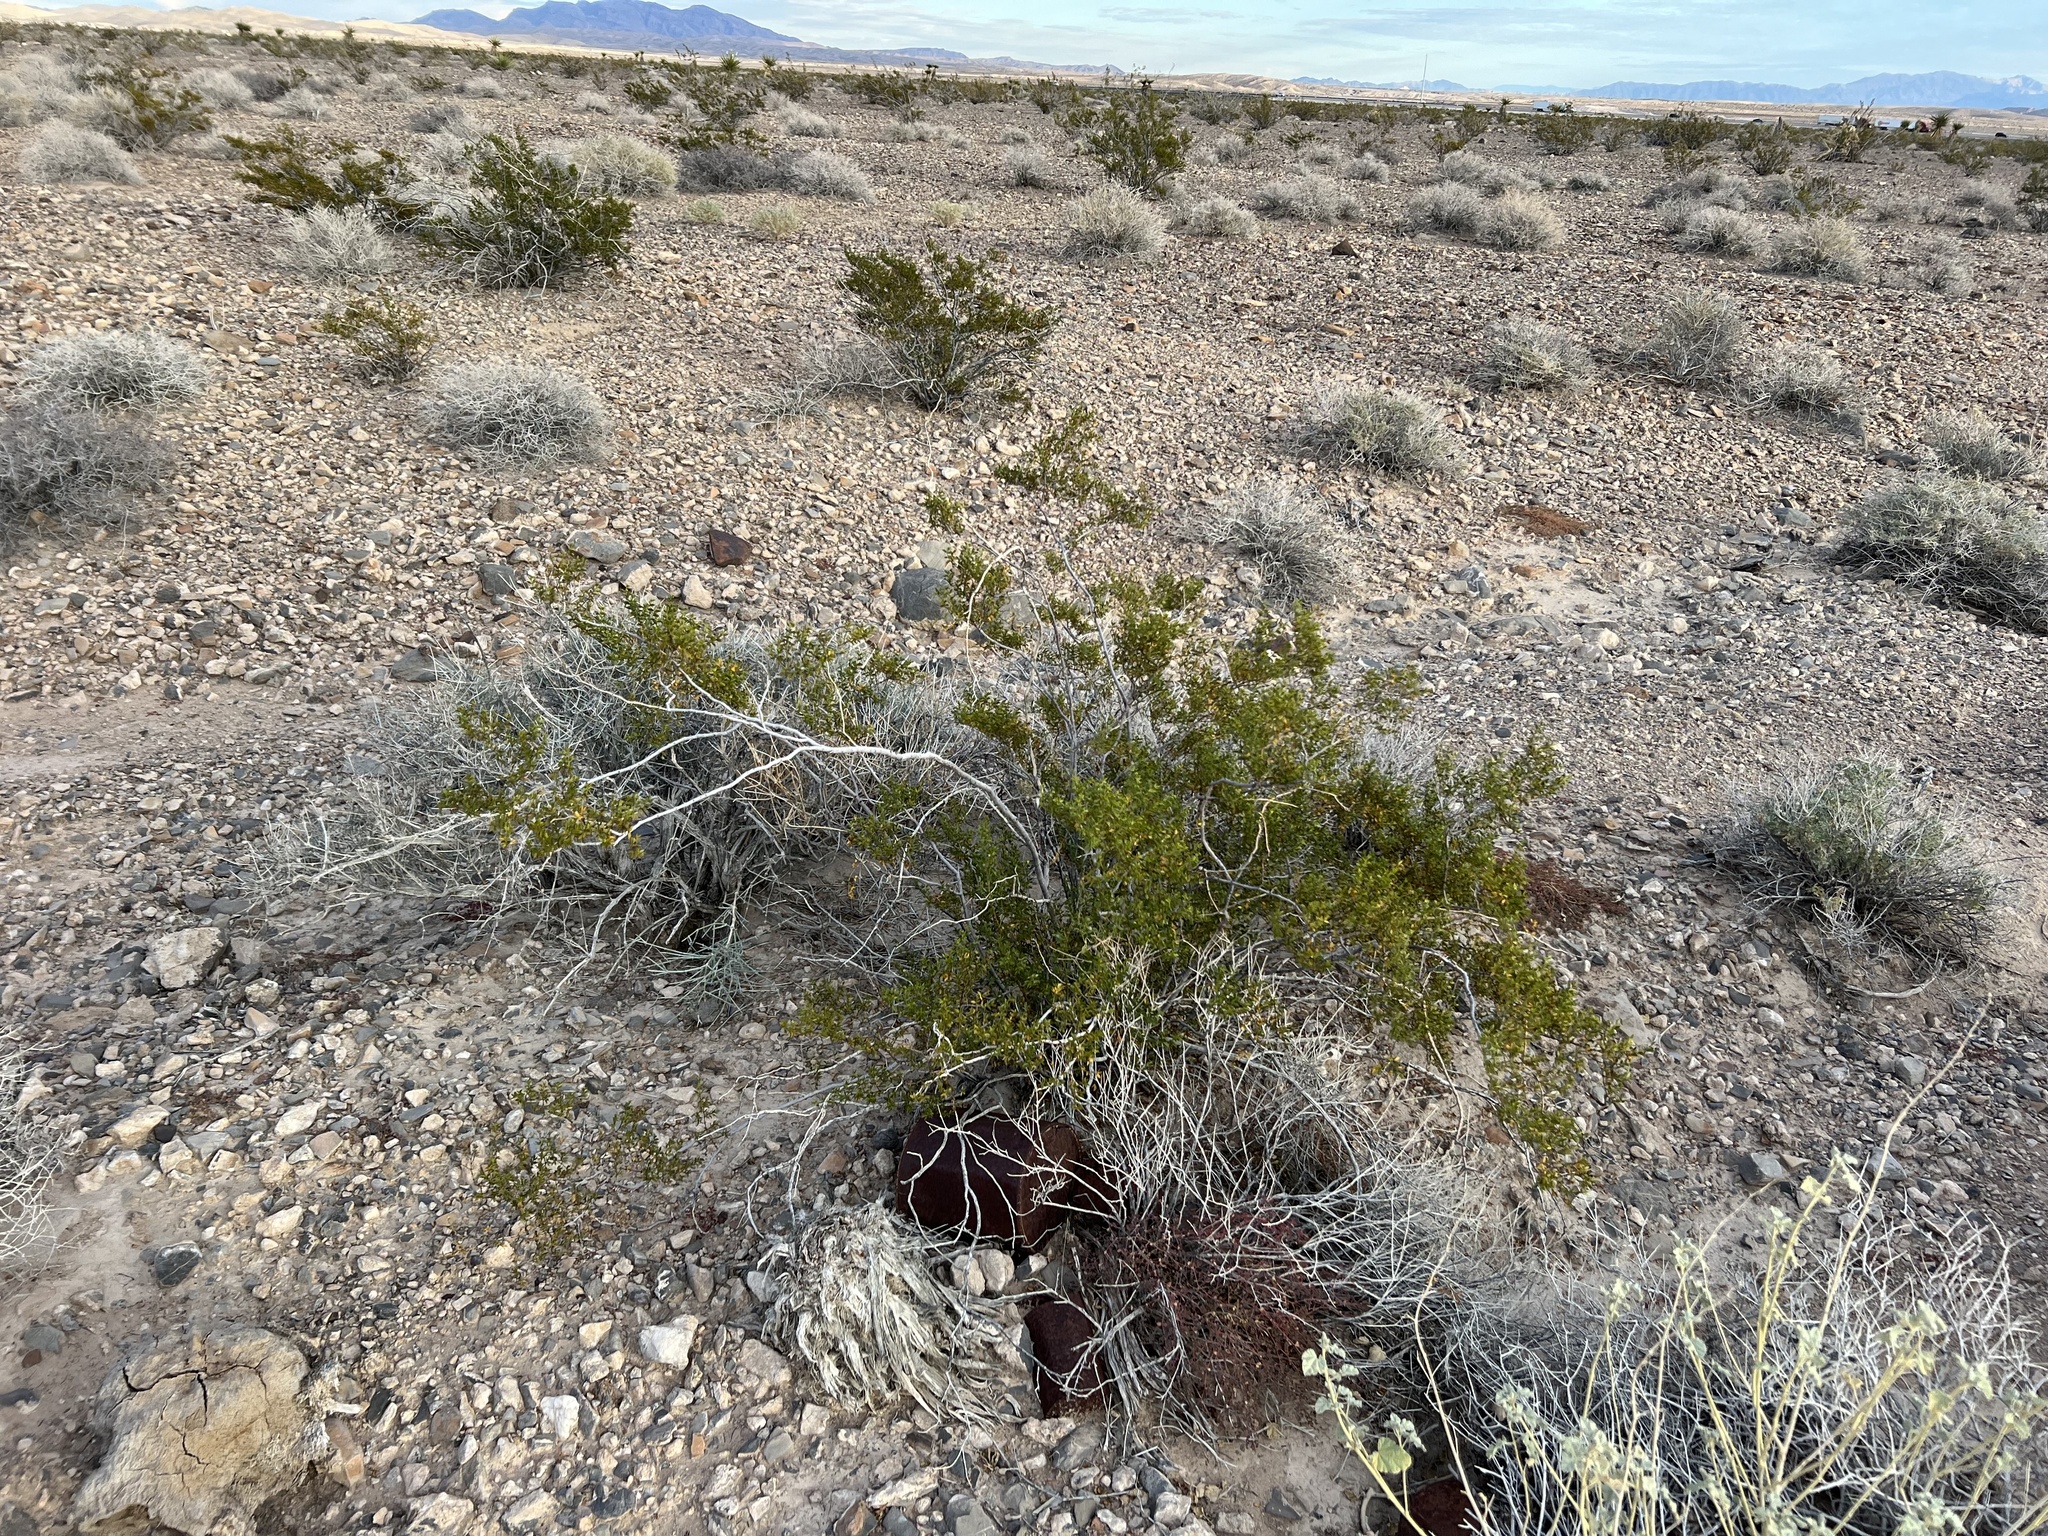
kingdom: Plantae
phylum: Tracheophyta
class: Magnoliopsida
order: Zygophyllales
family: Zygophyllaceae
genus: Larrea
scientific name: Larrea tridentata
